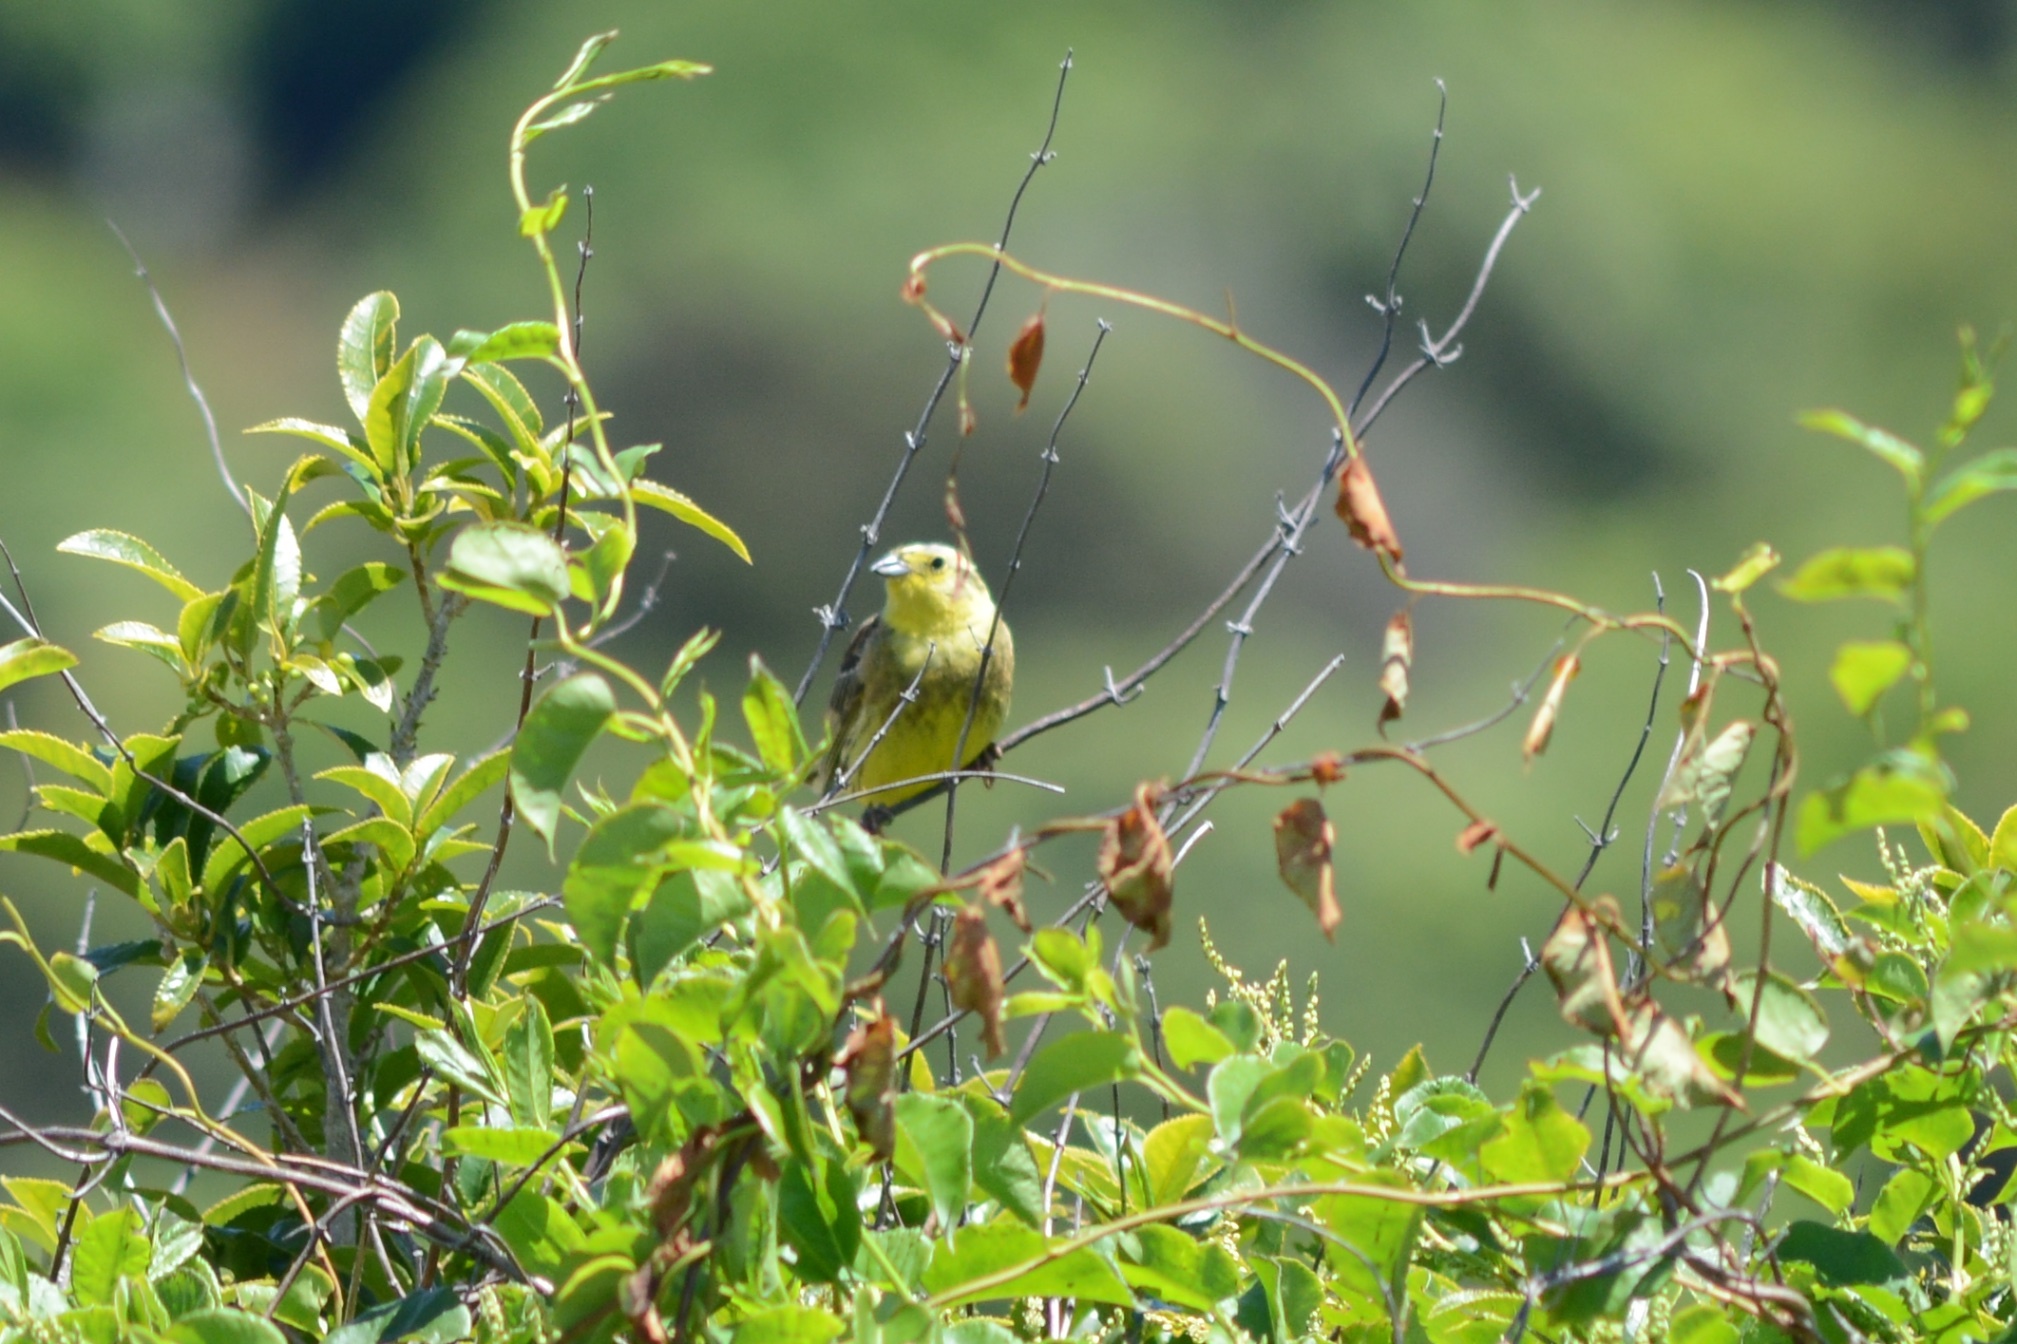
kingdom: Animalia
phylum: Chordata
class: Aves
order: Passeriformes
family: Emberizidae
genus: Emberiza
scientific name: Emberiza citrinella
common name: Yellowhammer
